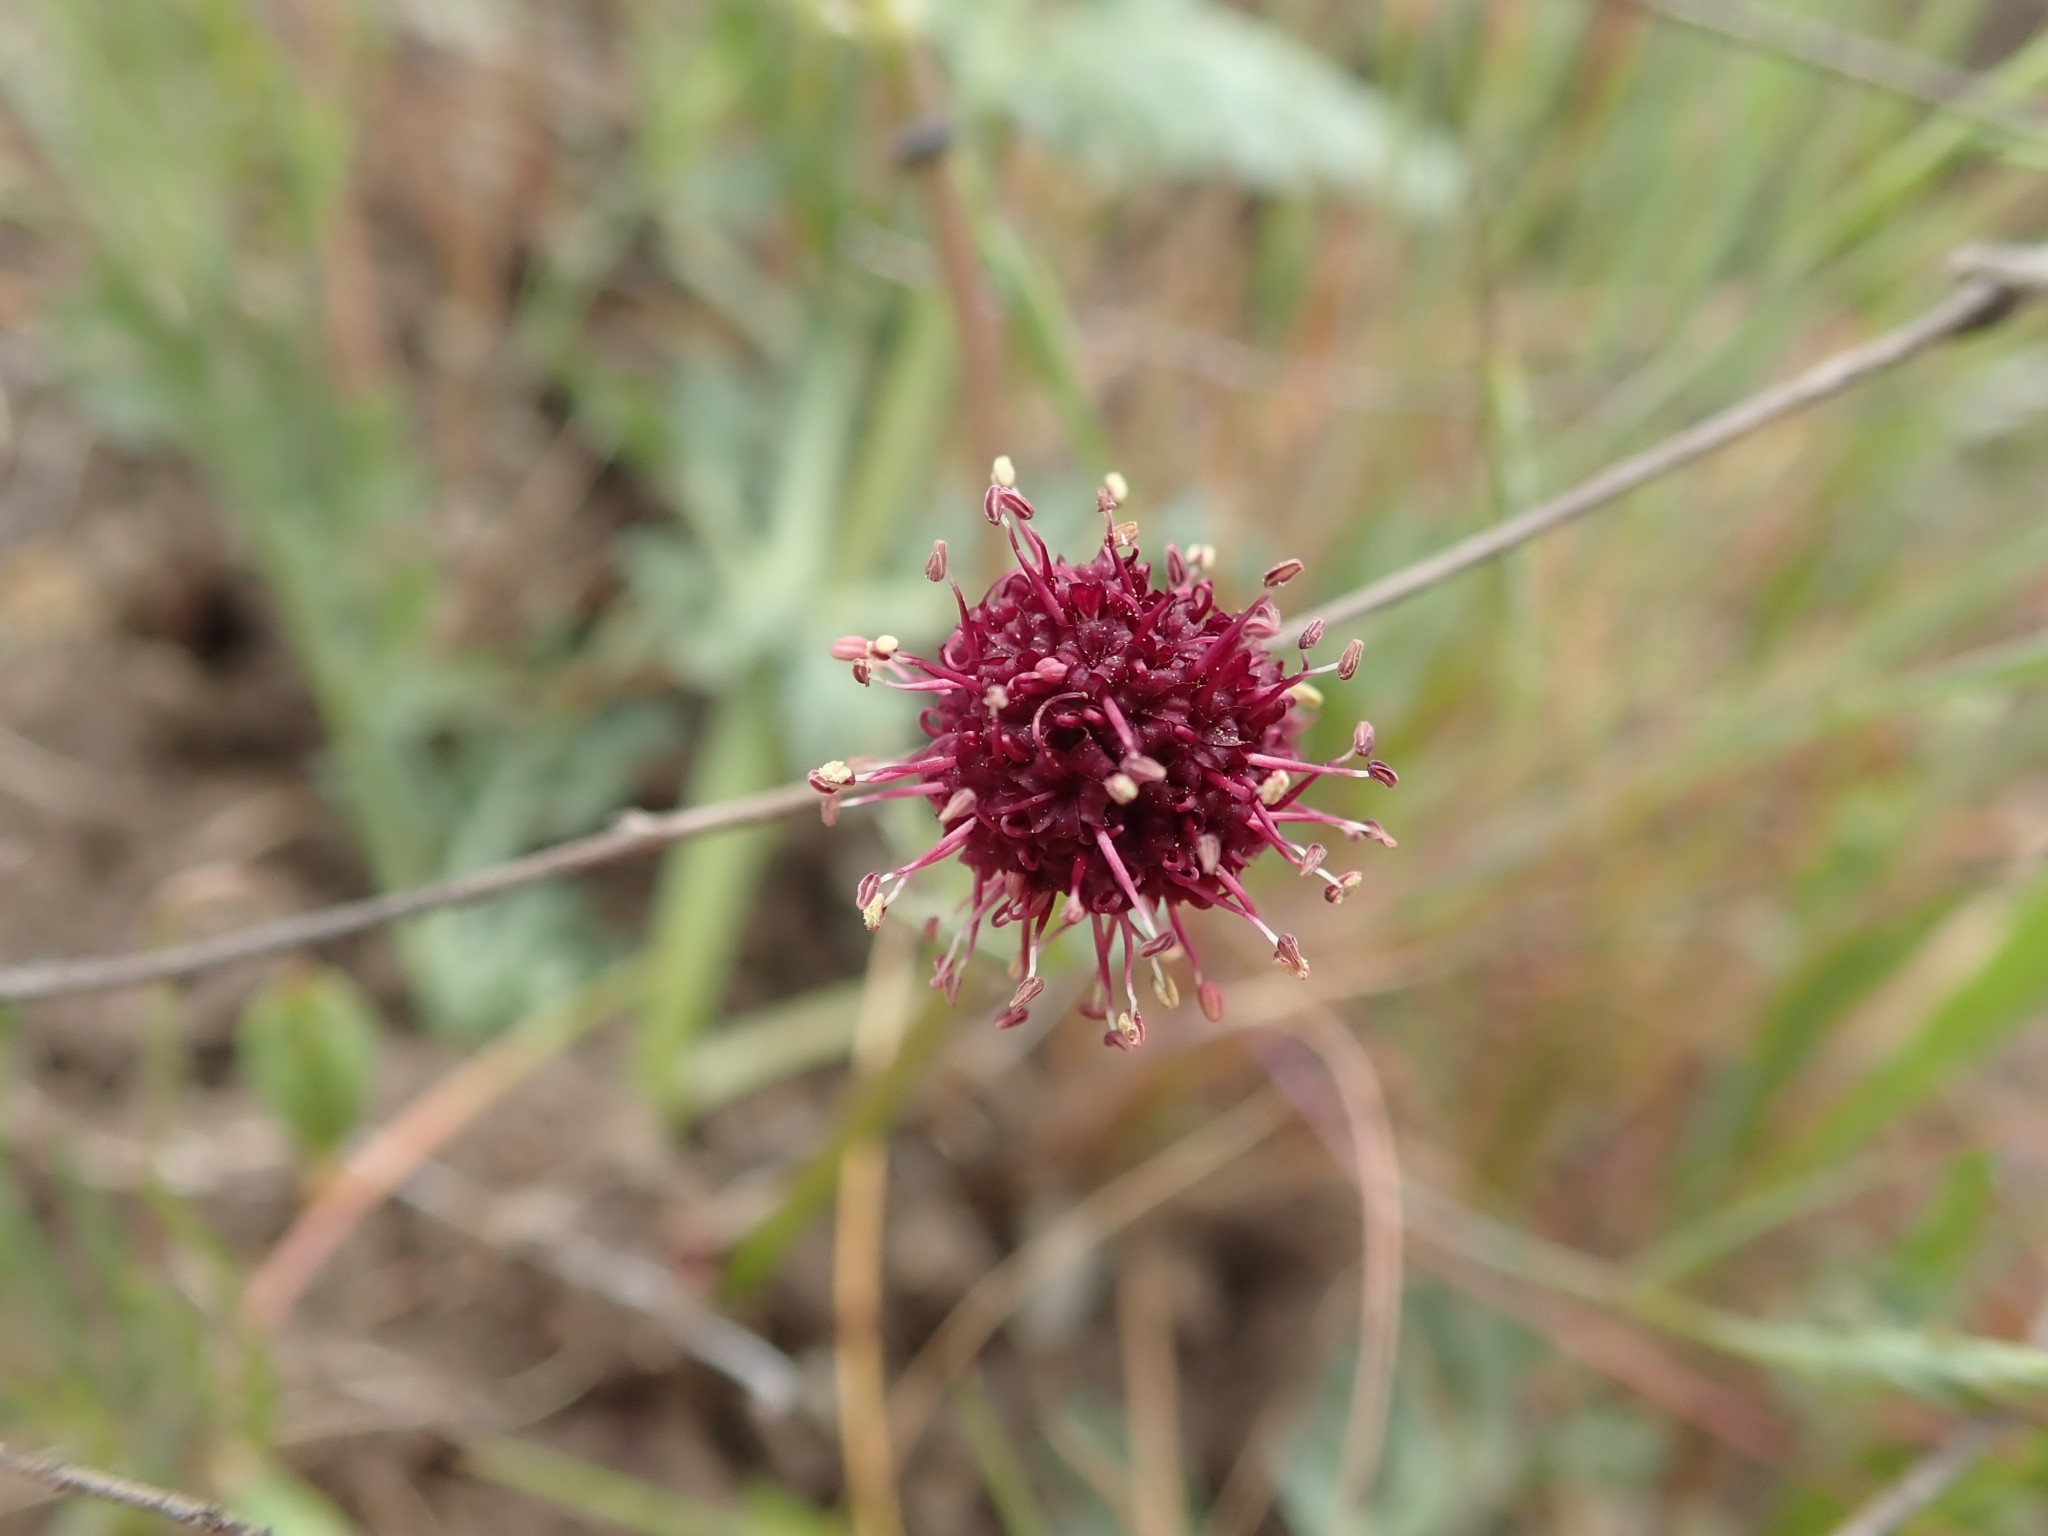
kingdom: Plantae
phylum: Tracheophyta
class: Magnoliopsida
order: Apiales
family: Apiaceae
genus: Sanicula
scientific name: Sanicula bipinnatifida
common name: Shoe-buttons
